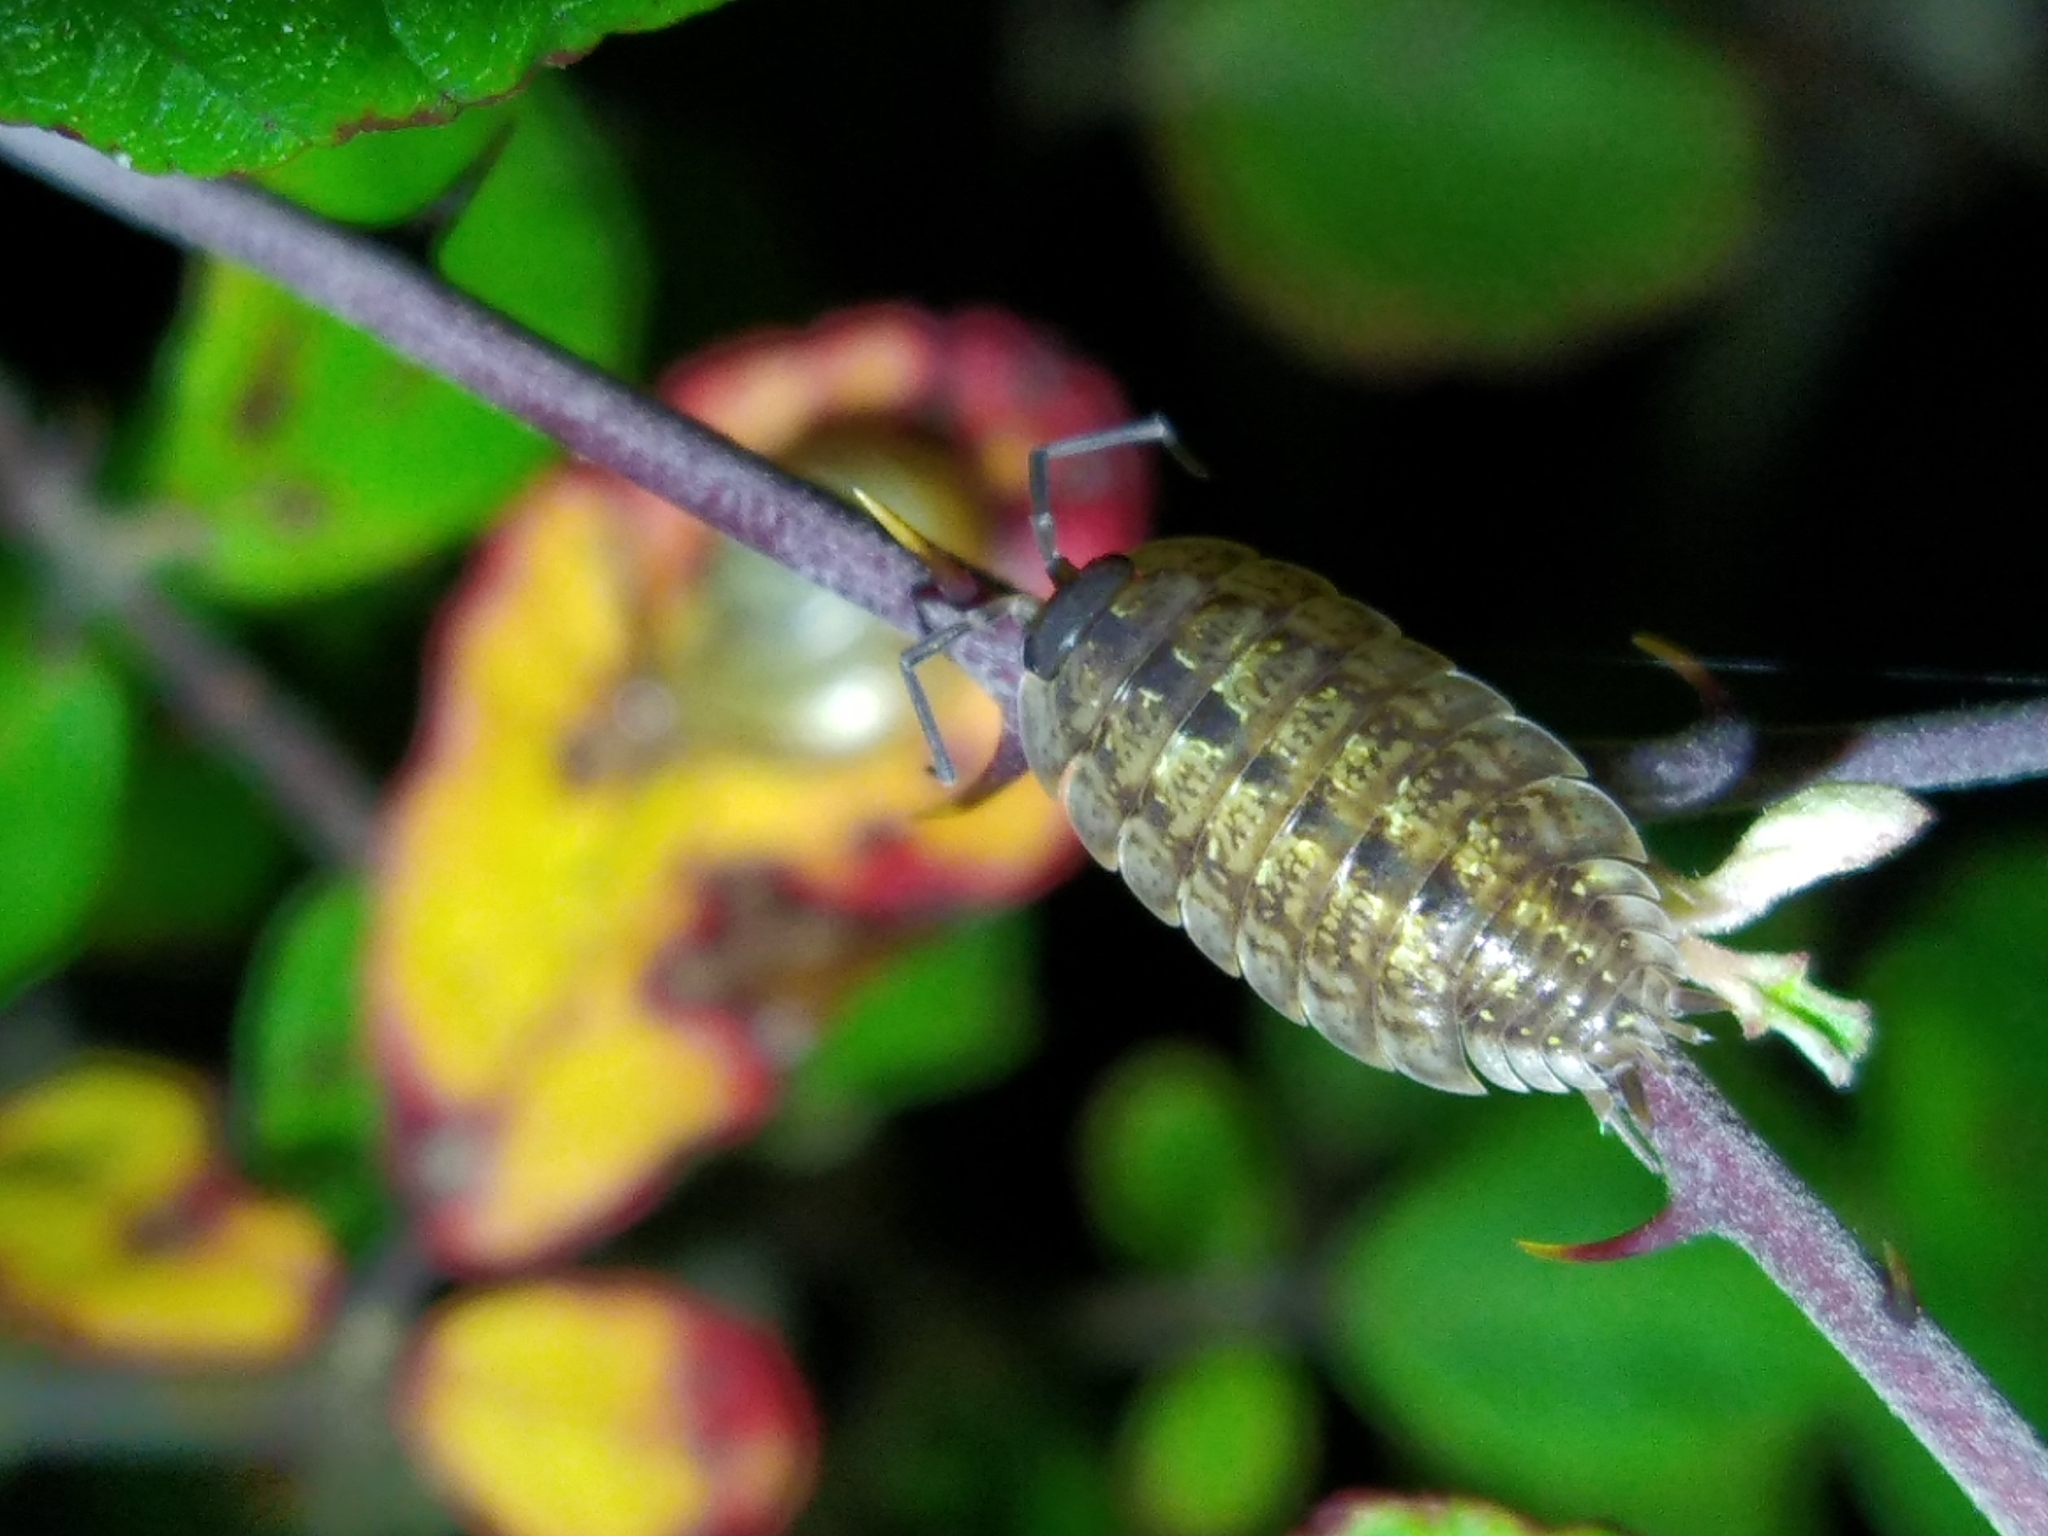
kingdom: Animalia
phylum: Arthropoda
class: Malacostraca
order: Isopoda
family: Porcellionidae
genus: Porcellio
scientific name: Porcellio monticola
